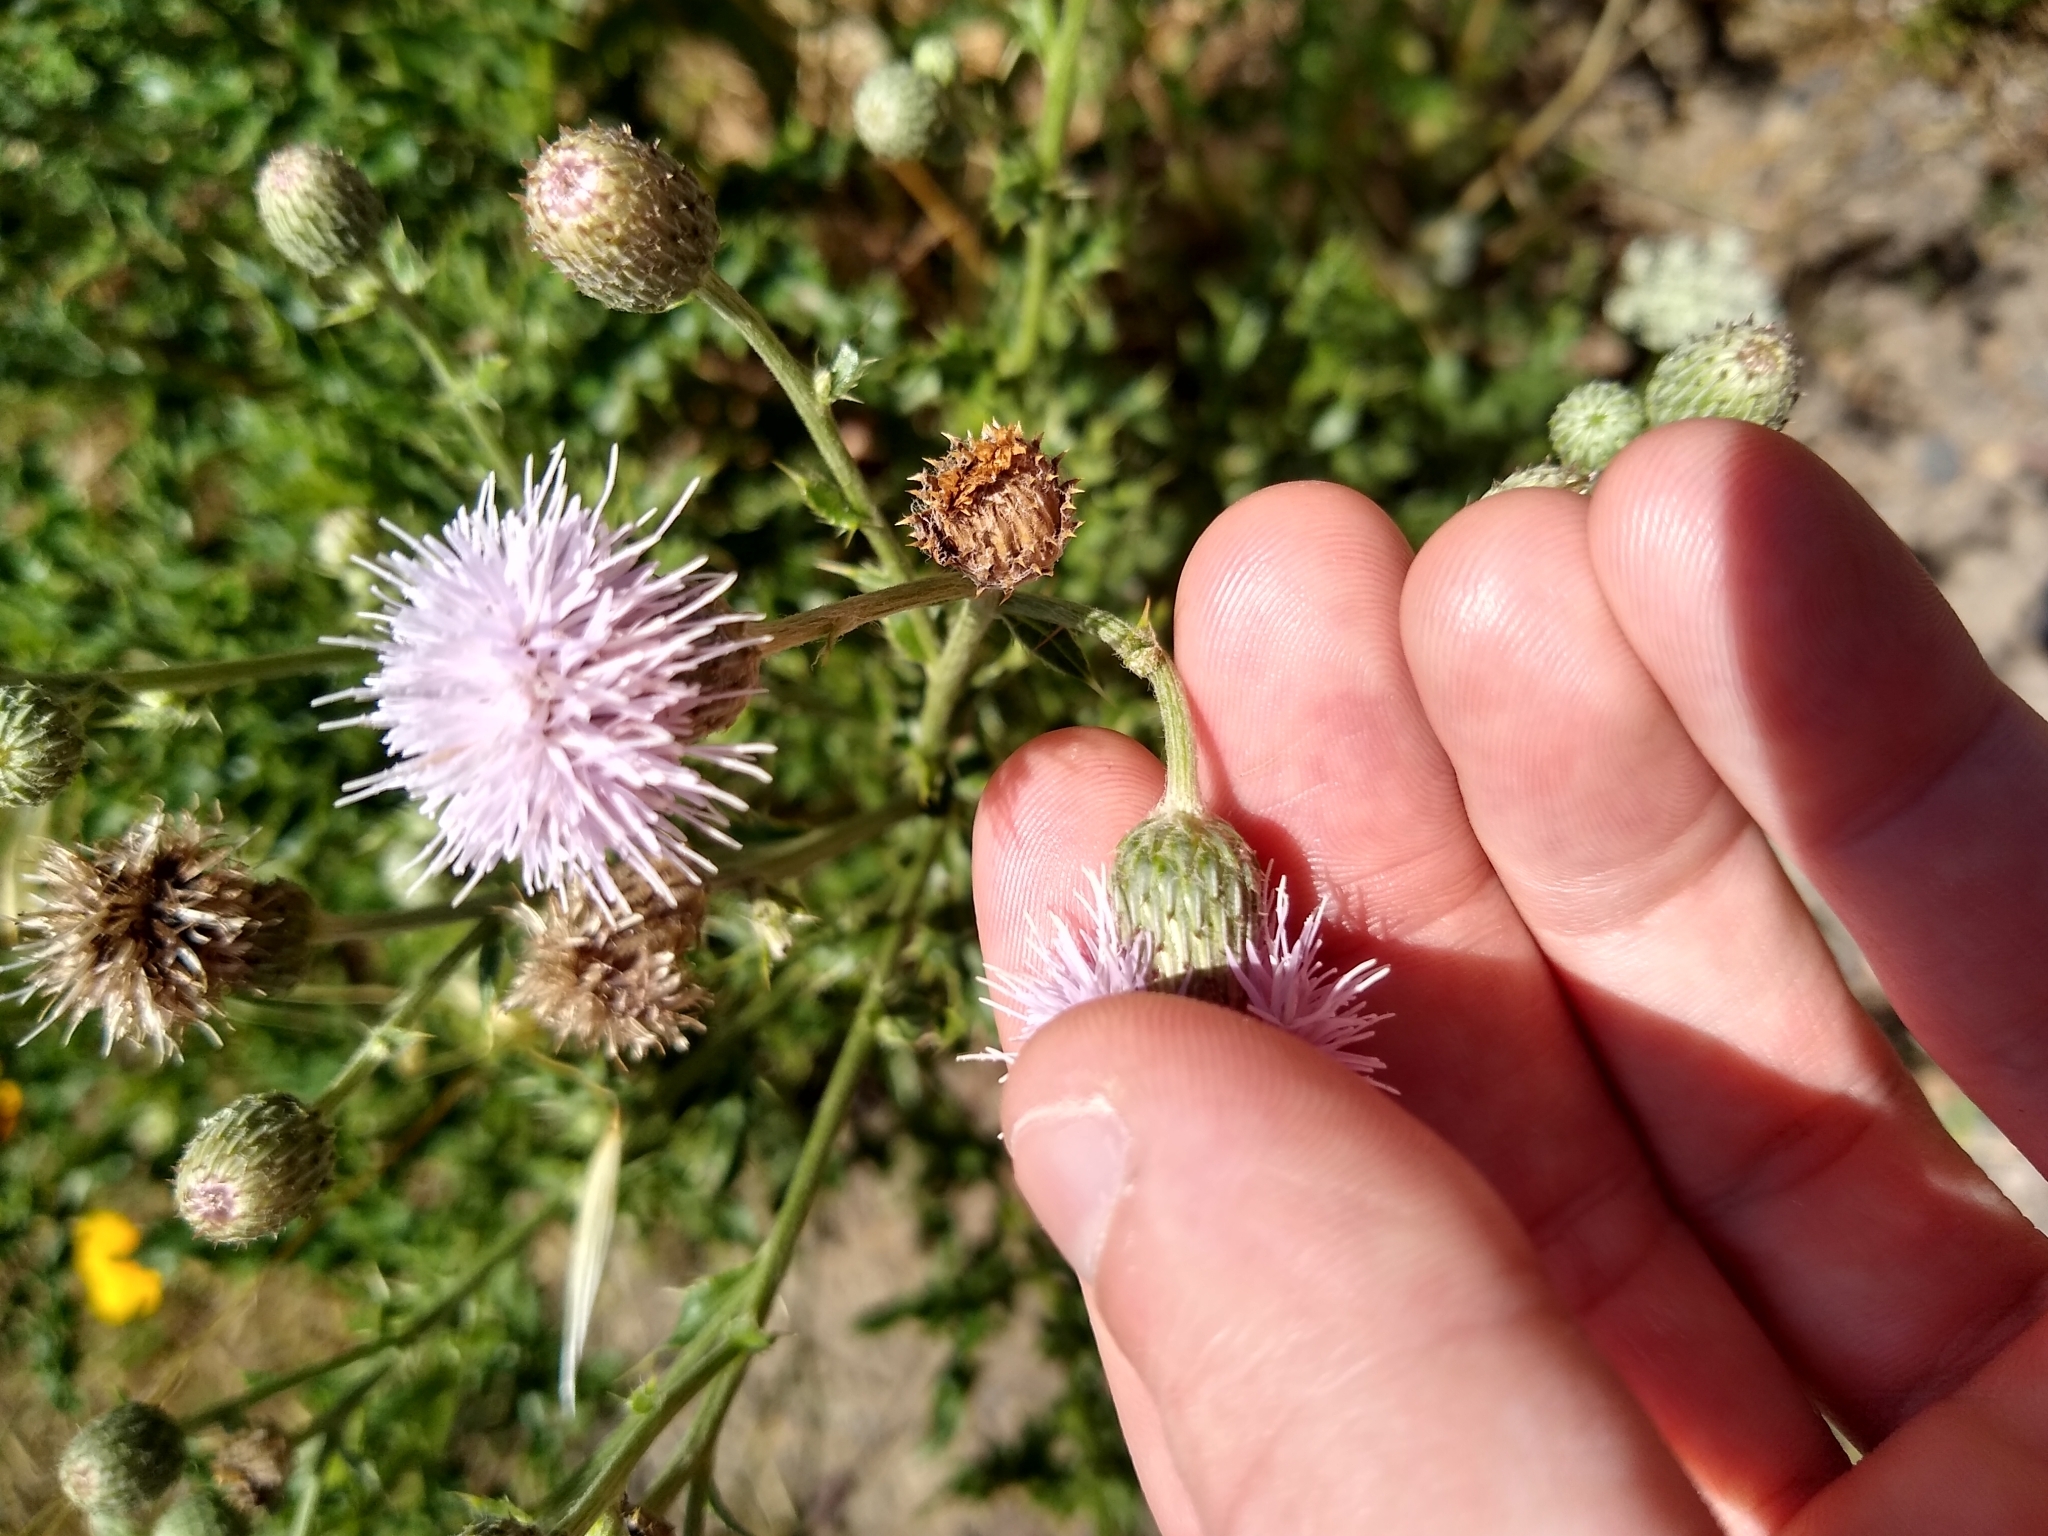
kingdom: Plantae
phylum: Tracheophyta
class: Magnoliopsida
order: Asterales
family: Asteraceae
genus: Cirsium
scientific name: Cirsium arvense
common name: Creeping thistle
